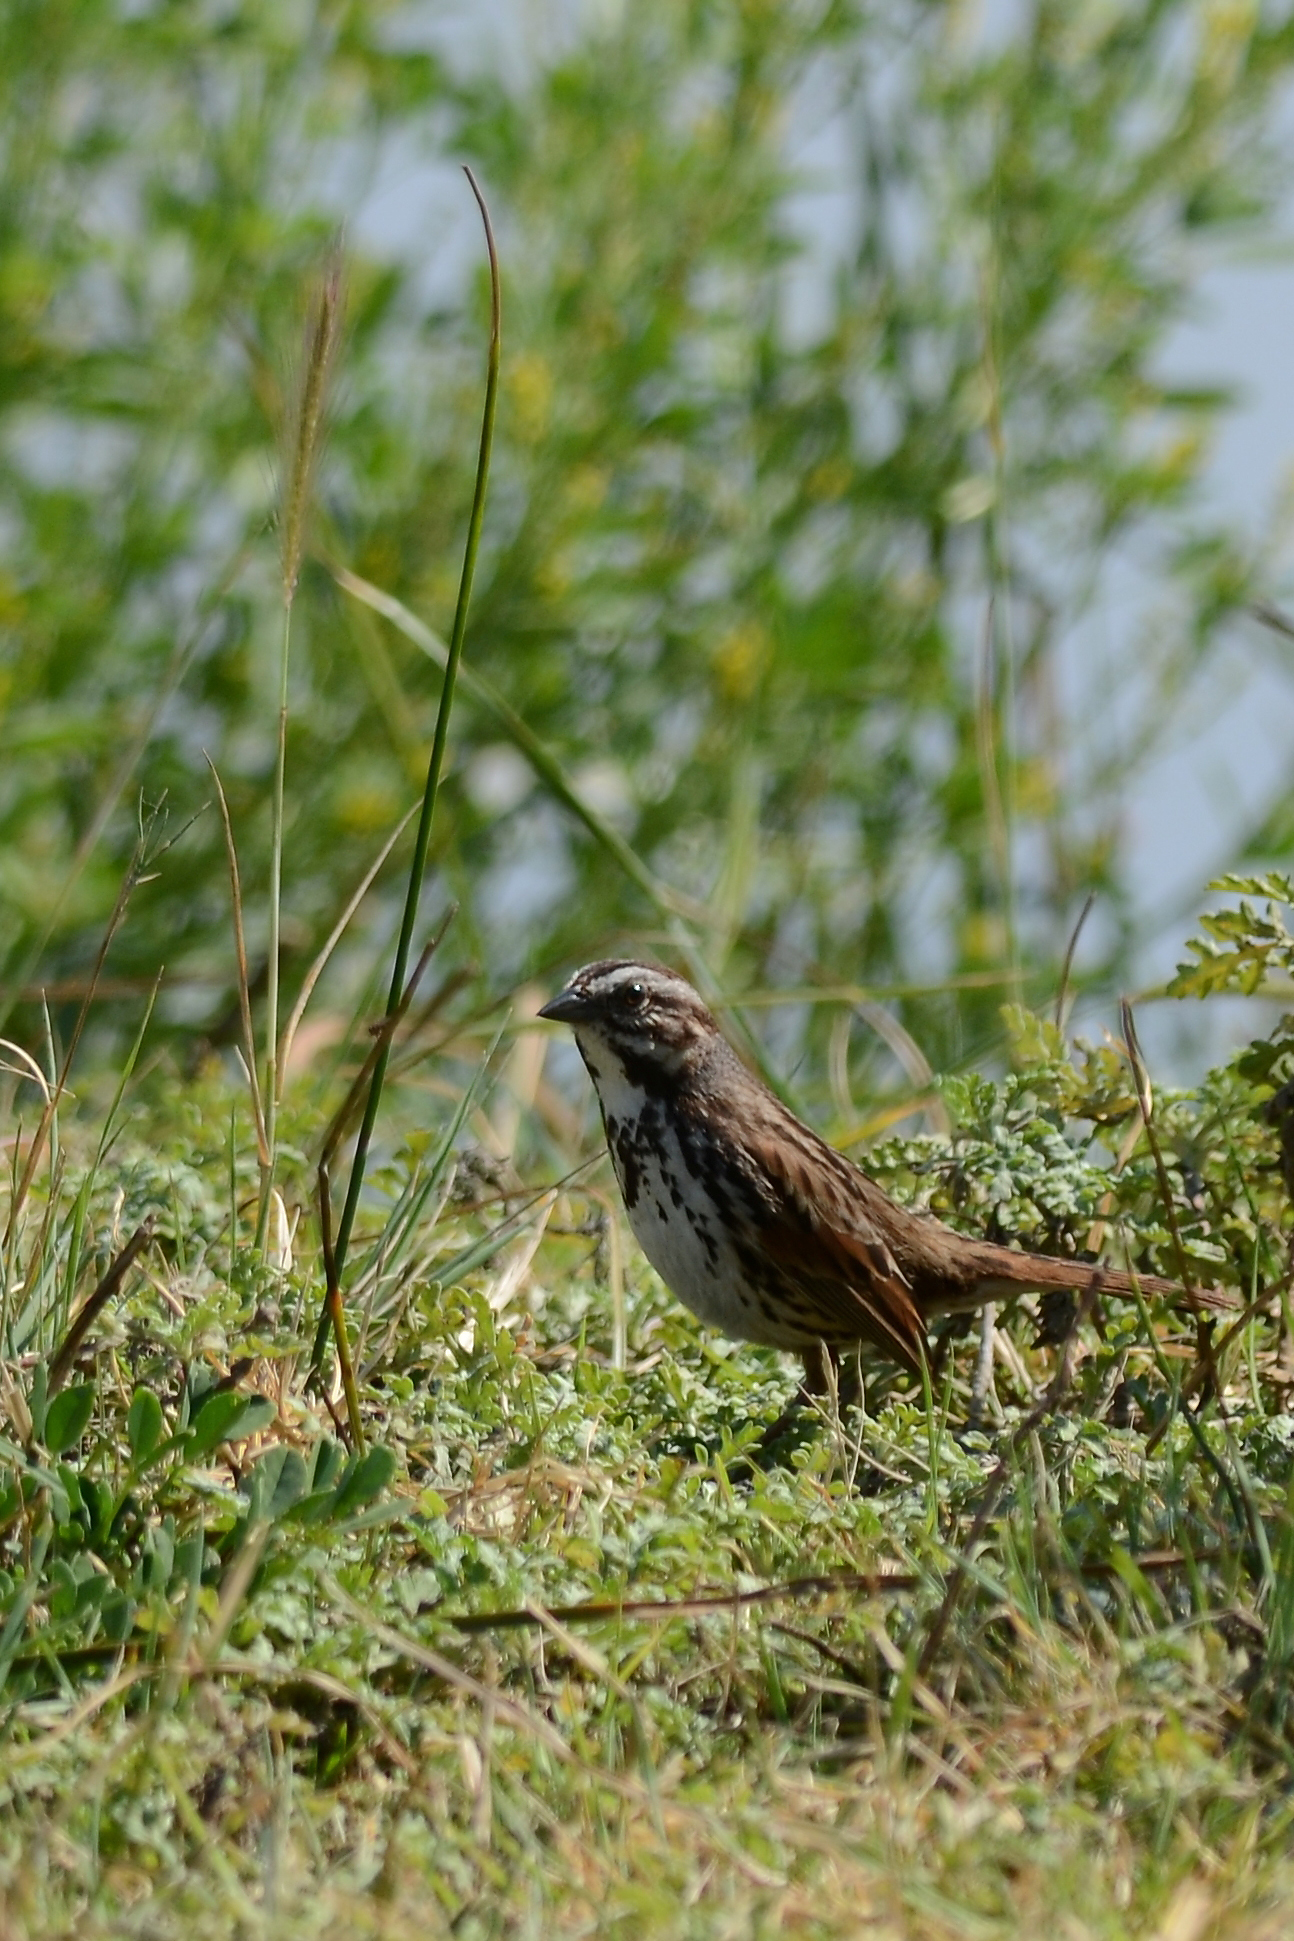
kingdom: Animalia
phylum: Chordata
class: Aves
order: Passeriformes
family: Passerellidae
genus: Melospiza
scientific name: Melospiza melodia
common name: Song sparrow
